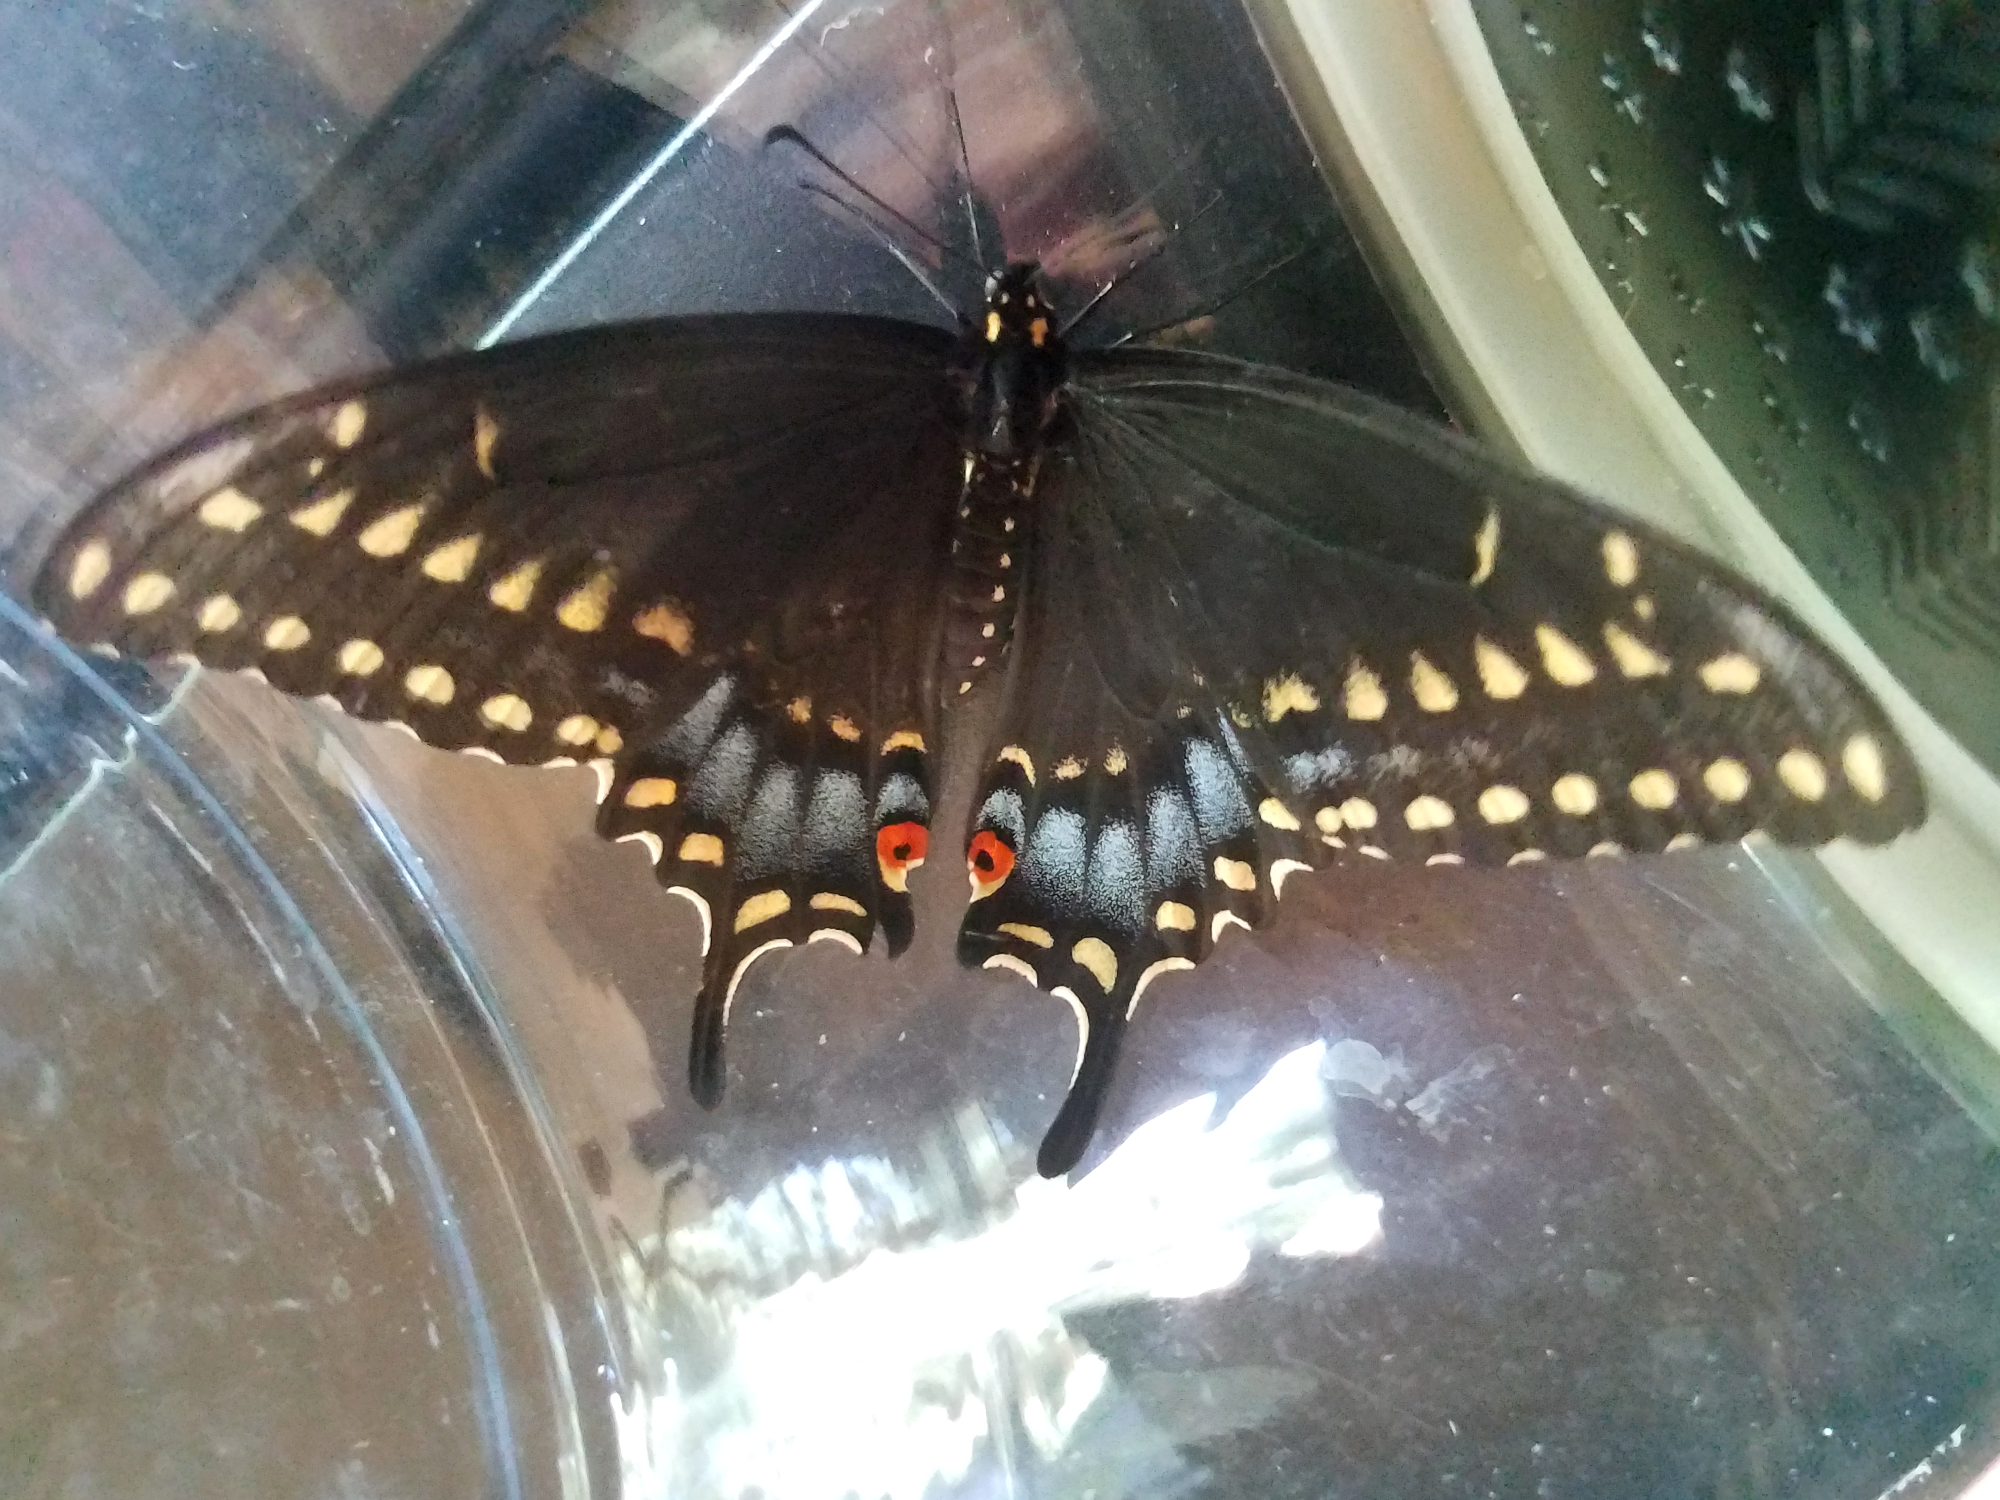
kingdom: Animalia
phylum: Arthropoda
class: Insecta
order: Lepidoptera
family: Papilionidae
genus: Papilio
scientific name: Papilio polyxenes
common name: Black swallowtail
